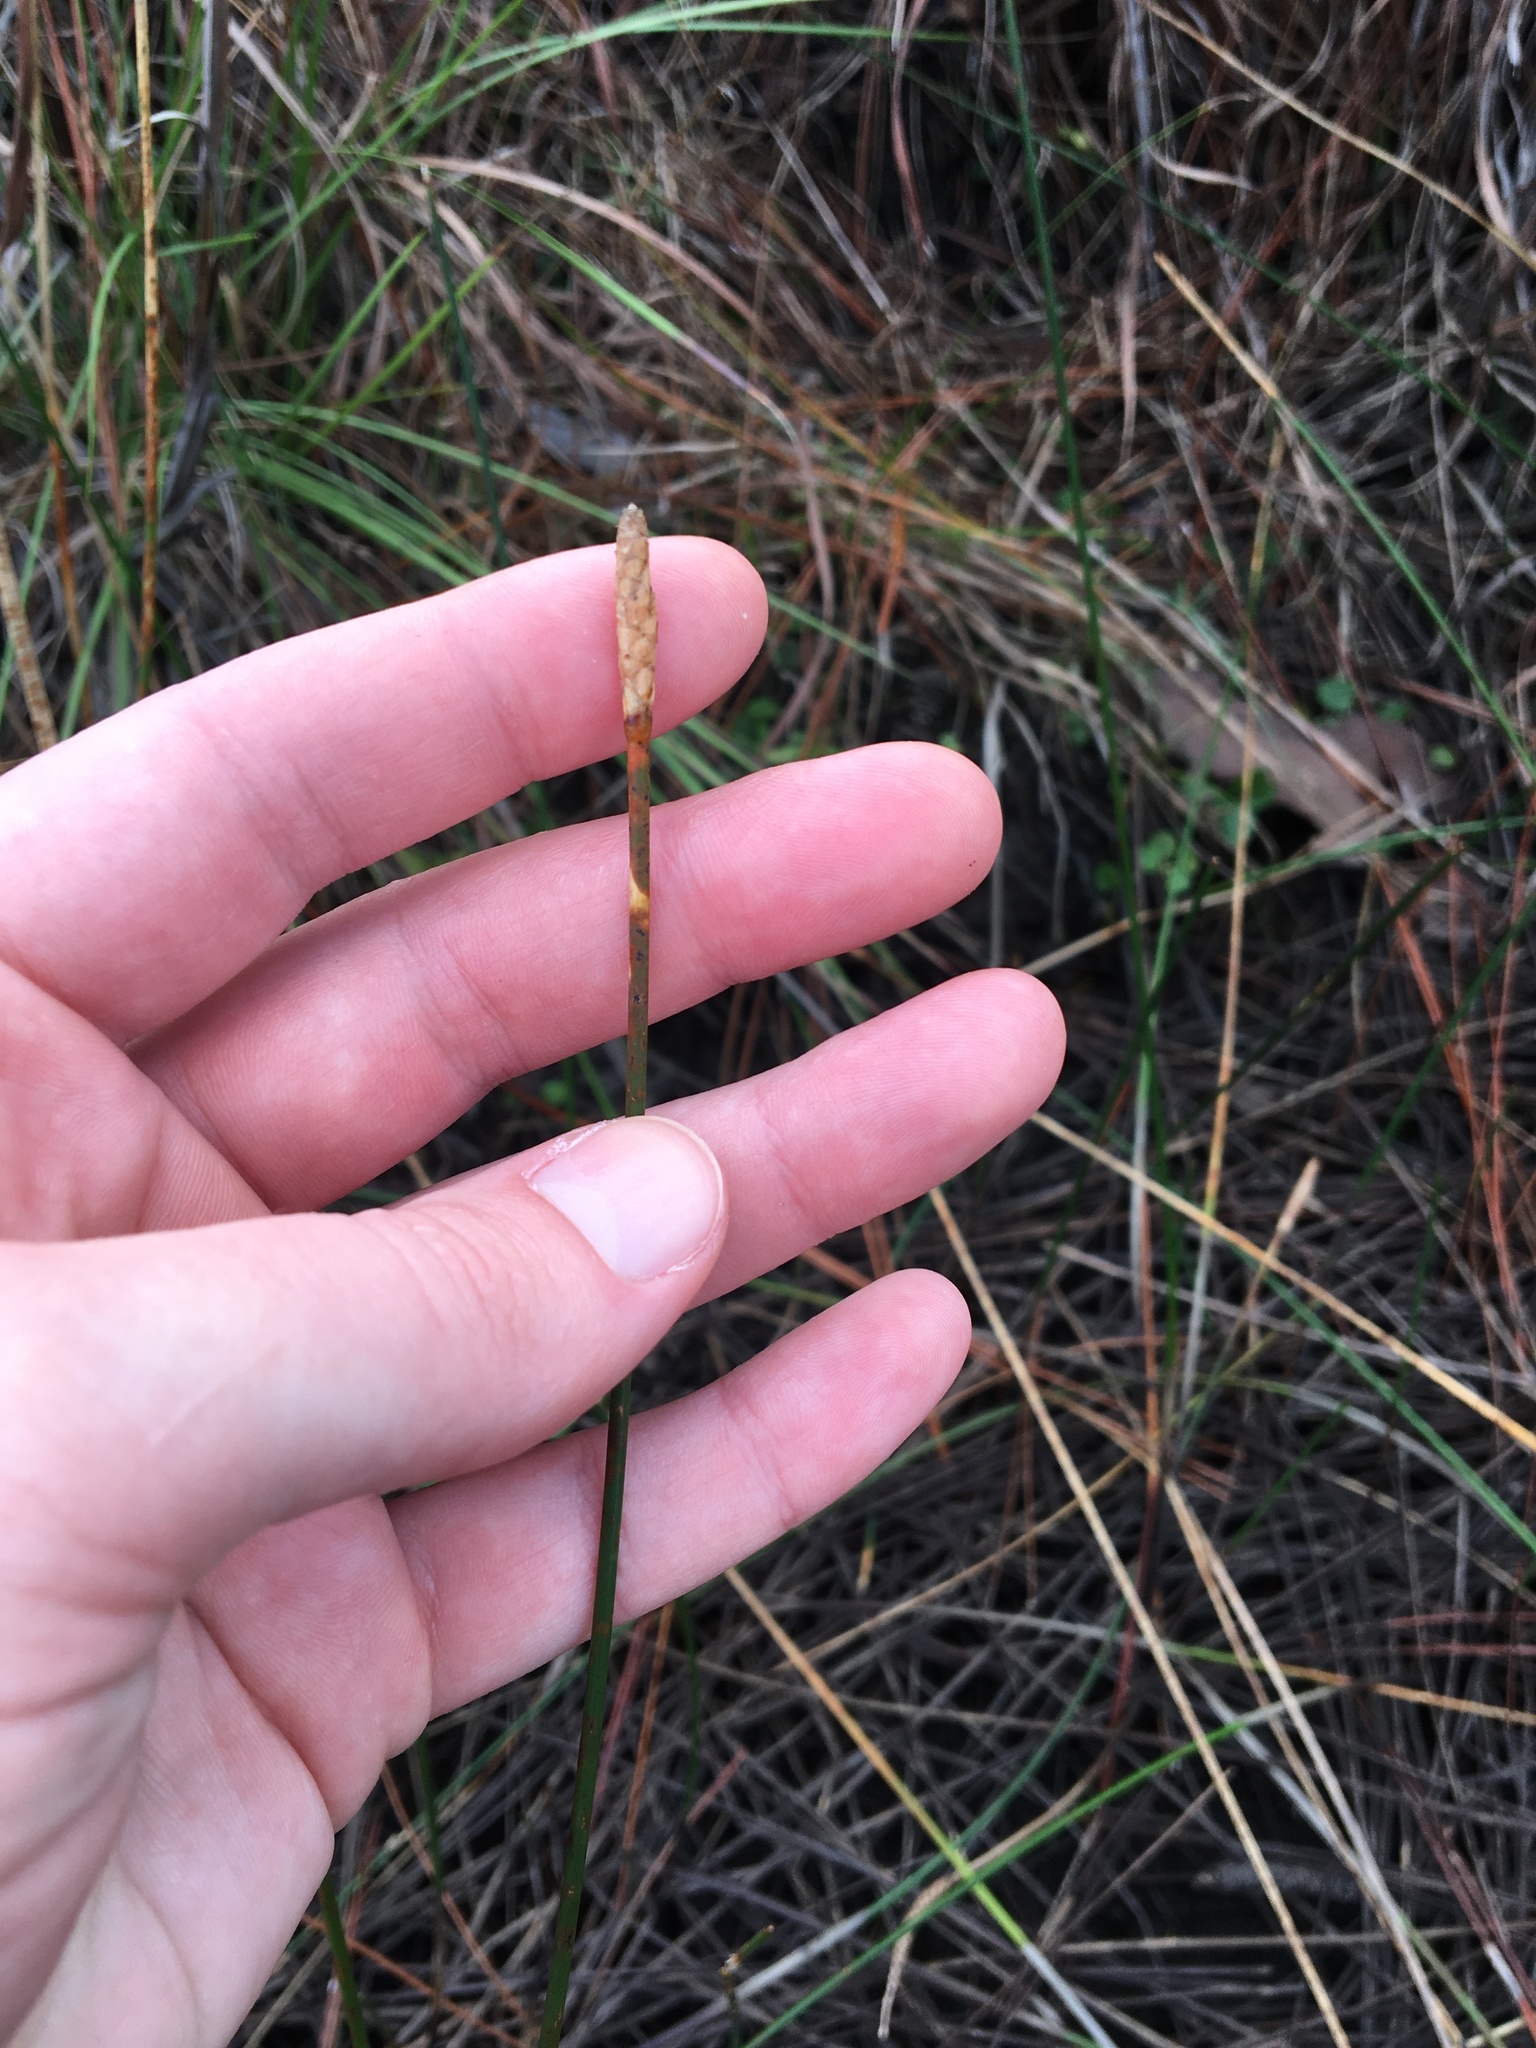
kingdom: Plantae
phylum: Tracheophyta
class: Liliopsida
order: Poales
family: Cyperaceae
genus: Eleocharis
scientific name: Eleocharis cellulosa
